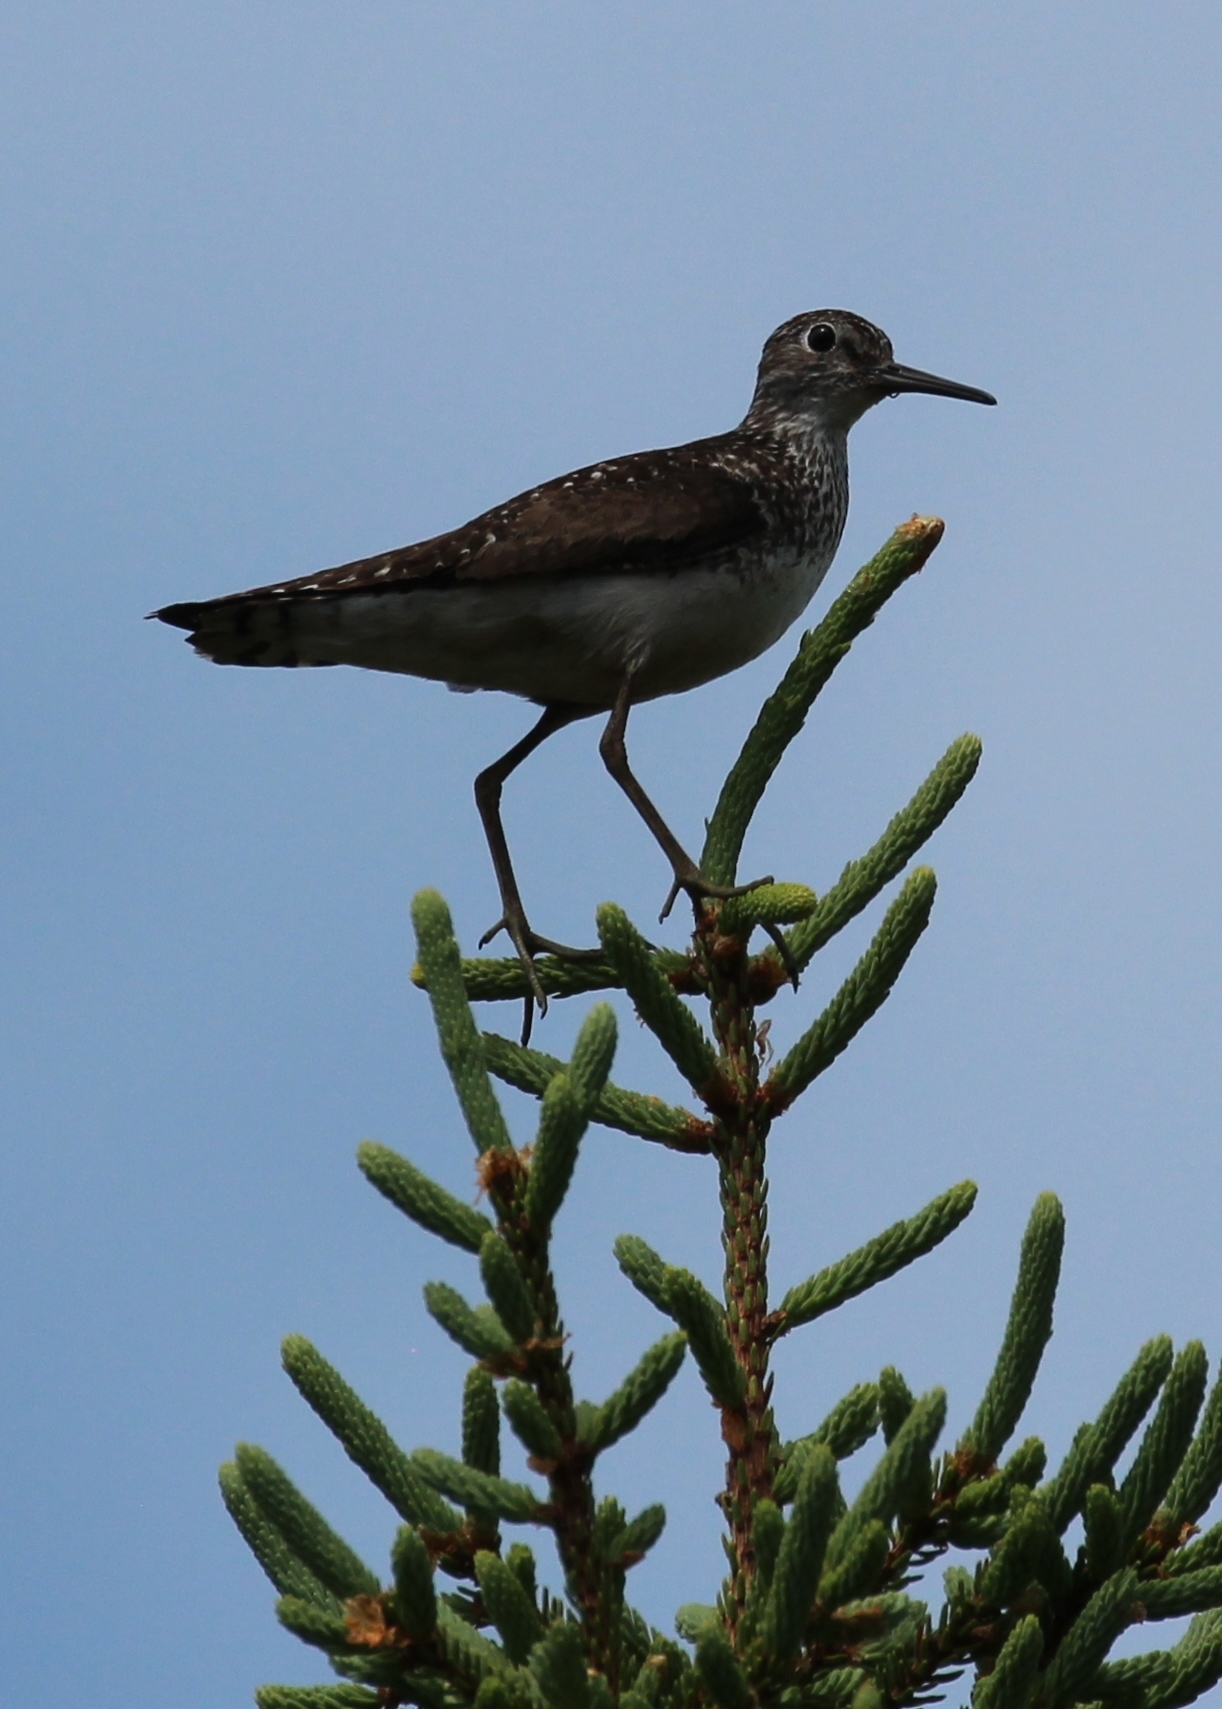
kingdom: Animalia
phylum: Chordata
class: Aves
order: Charadriiformes
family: Scolopacidae
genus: Tringa
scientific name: Tringa solitaria
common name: Solitary sandpiper
